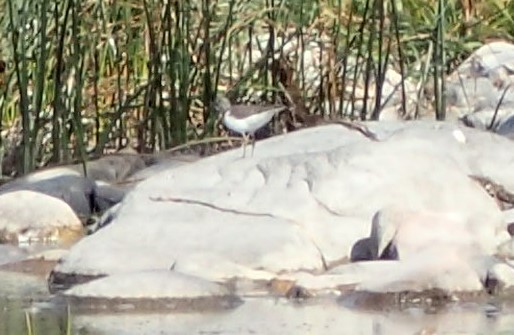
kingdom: Animalia
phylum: Chordata
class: Aves
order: Charadriiformes
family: Scolopacidae
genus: Actitis
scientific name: Actitis macularius
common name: Spotted sandpiper
